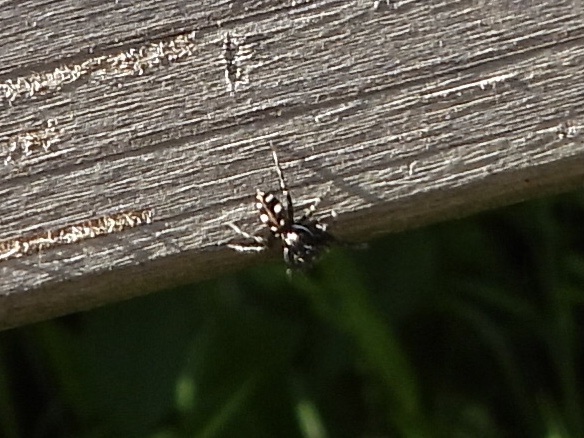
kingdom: Animalia
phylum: Arthropoda
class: Arachnida
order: Araneae
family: Salticidae
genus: Salticus
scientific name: Salticus scenicus
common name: Zebra jumper
